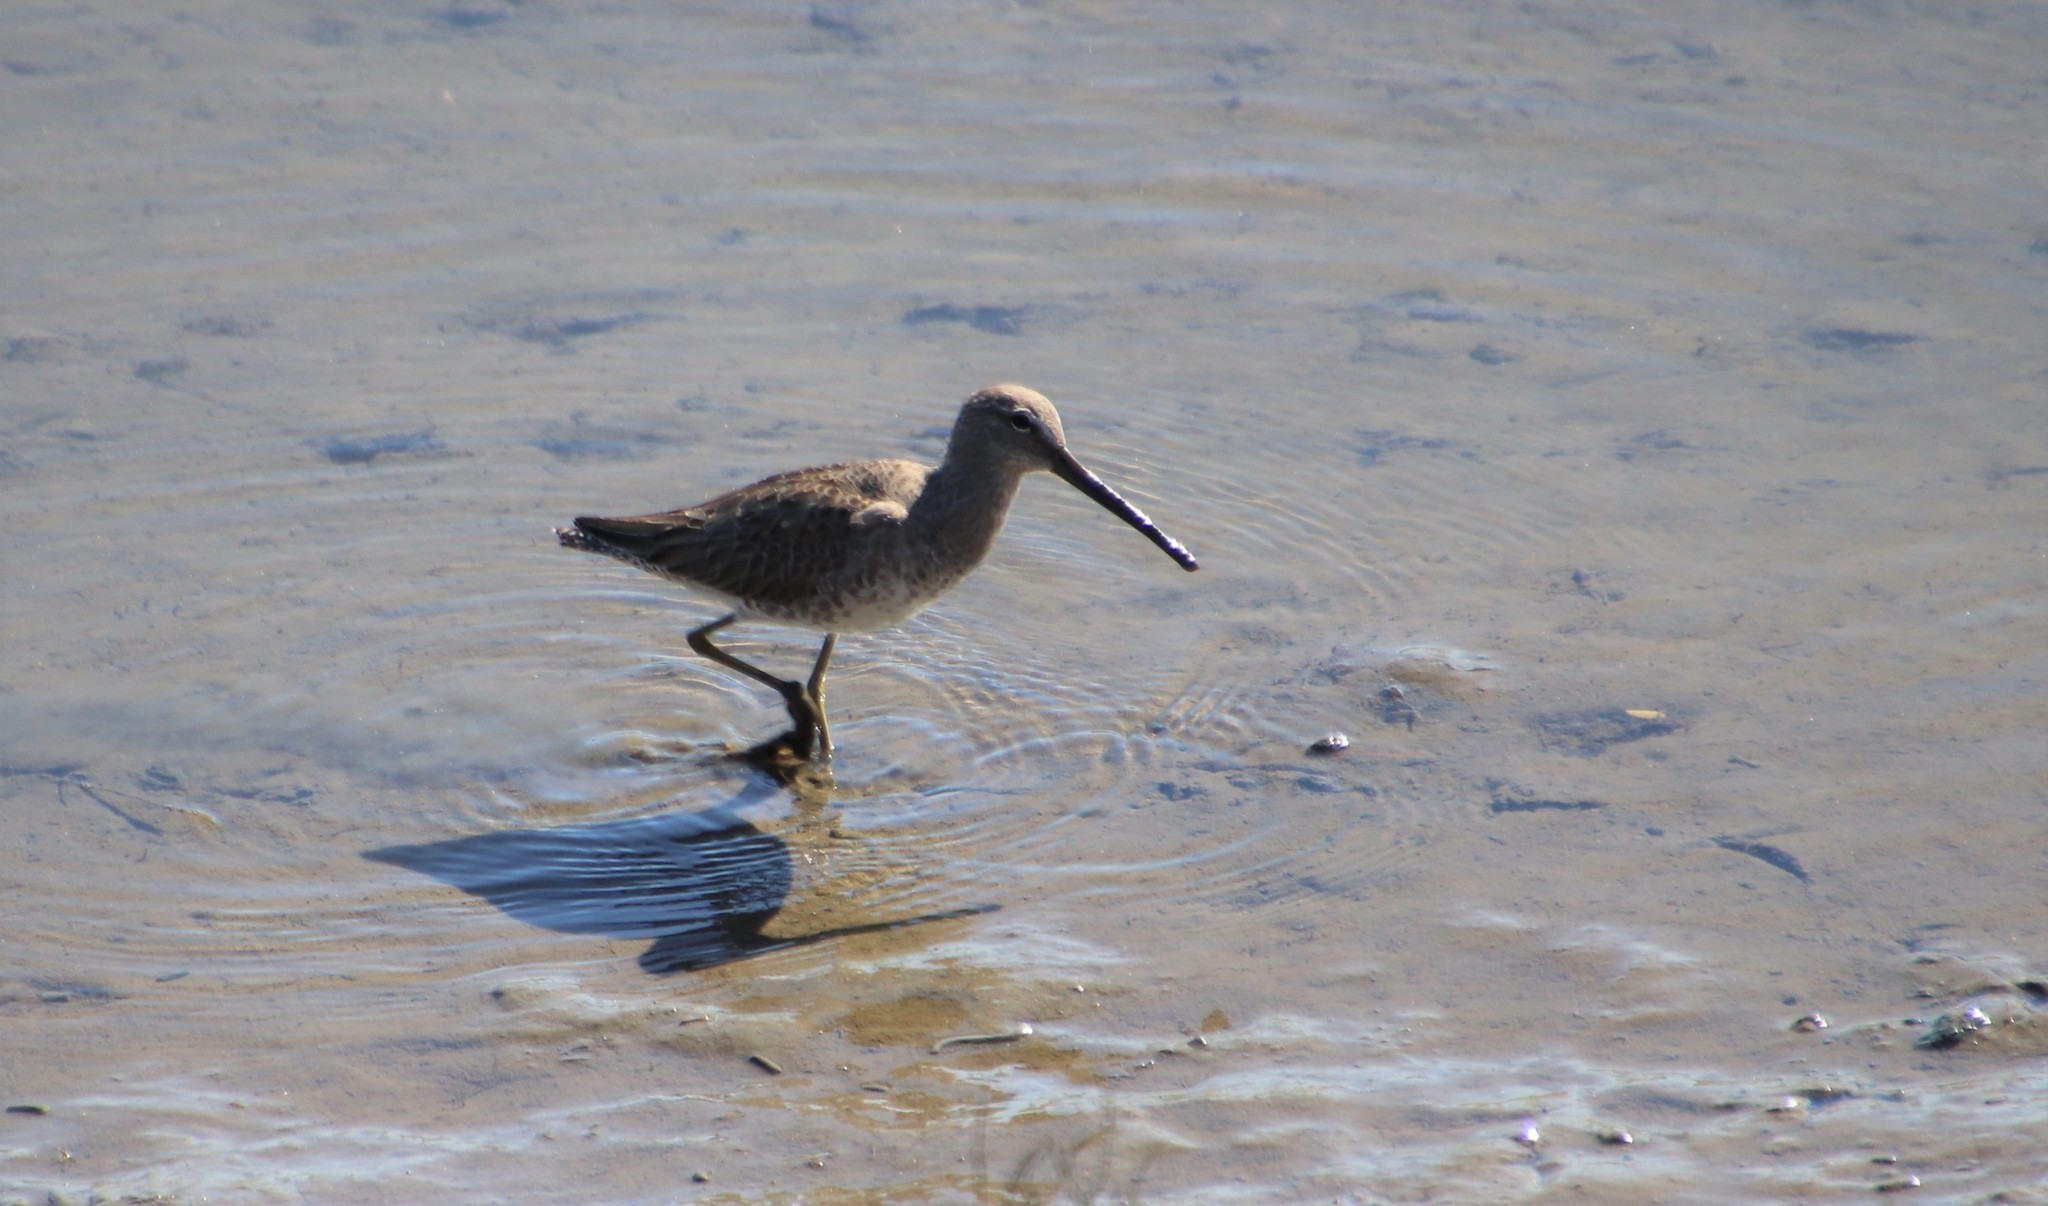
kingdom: Animalia
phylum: Chordata
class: Aves
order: Charadriiformes
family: Scolopacidae
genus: Limnodromus
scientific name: Limnodromus
